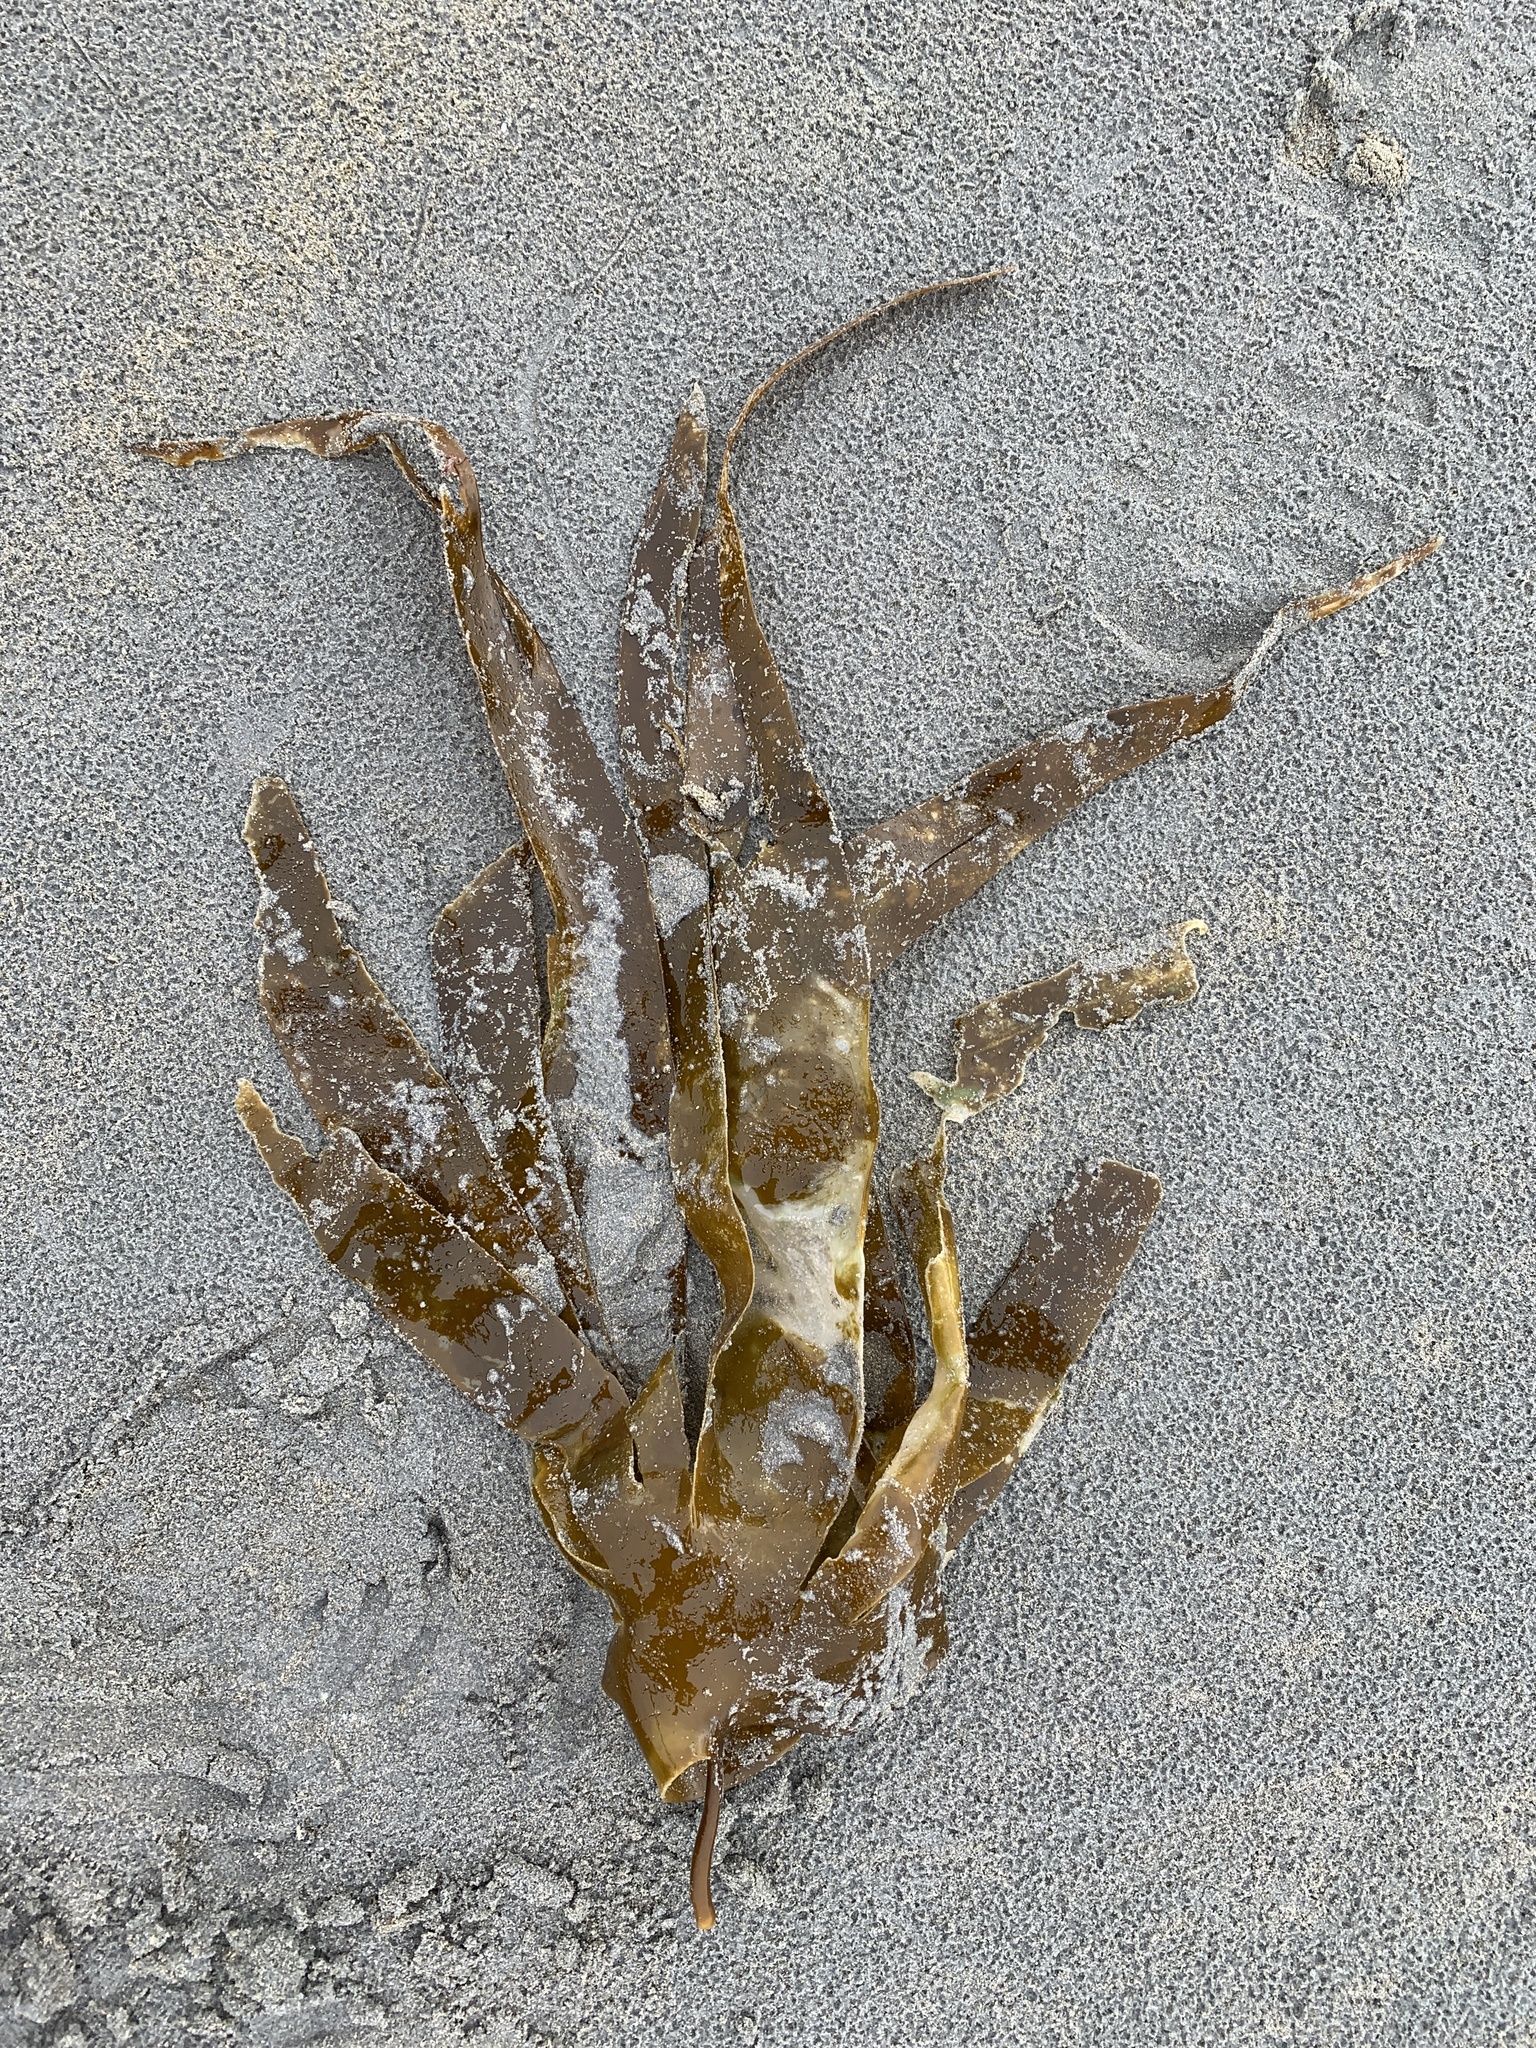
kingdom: Chromista
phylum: Ochrophyta
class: Phaeophyceae
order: Laminariales
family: Laminariaceae
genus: Laminaria
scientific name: Laminaria digitata
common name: Oarweed
